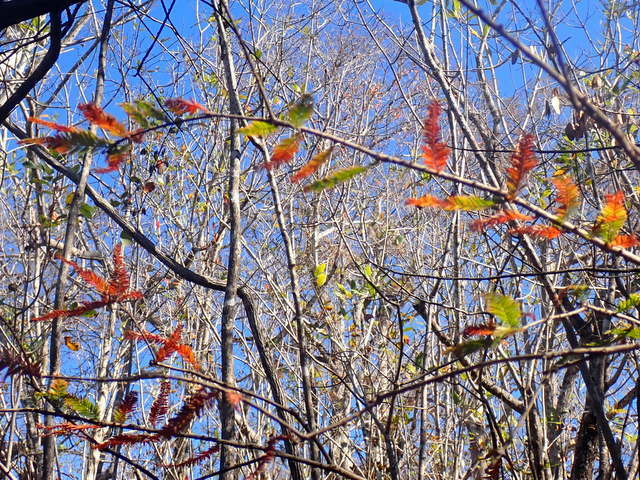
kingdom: Plantae
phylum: Tracheophyta
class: Pinopsida
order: Pinales
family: Cupressaceae
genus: Taxodium
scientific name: Taxodium distichum
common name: Bald cypress
